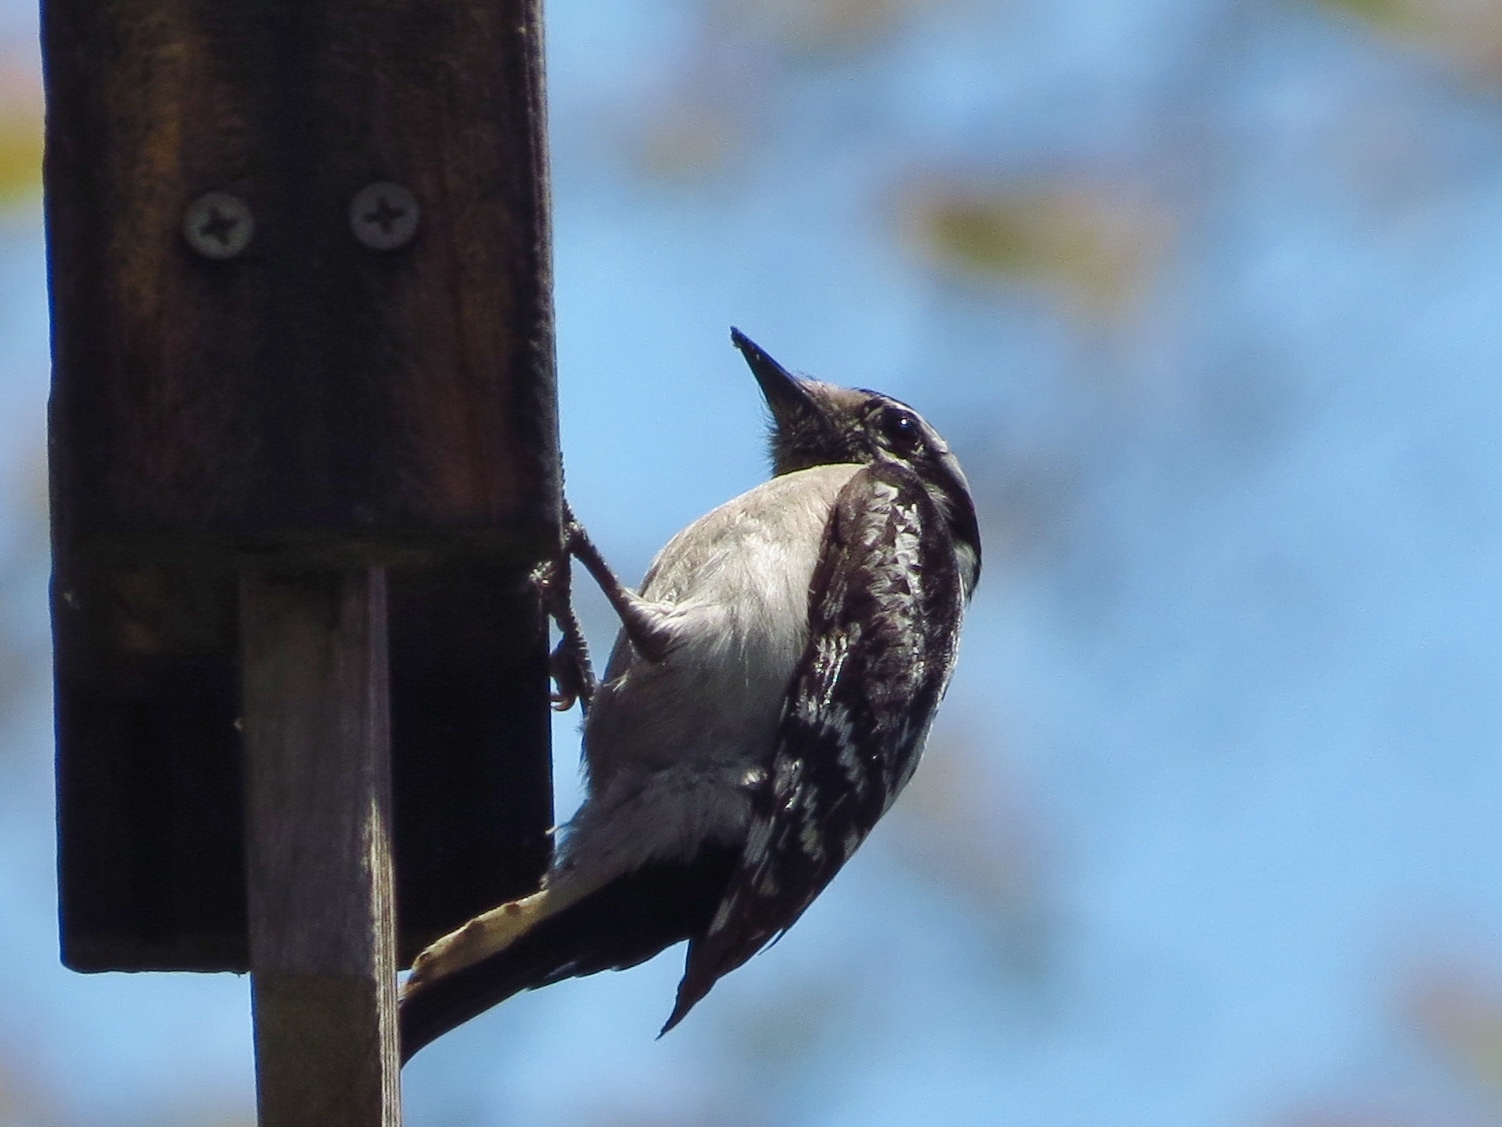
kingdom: Animalia
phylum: Chordata
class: Aves
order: Piciformes
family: Picidae
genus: Dryobates
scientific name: Dryobates pubescens
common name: Downy woodpecker
